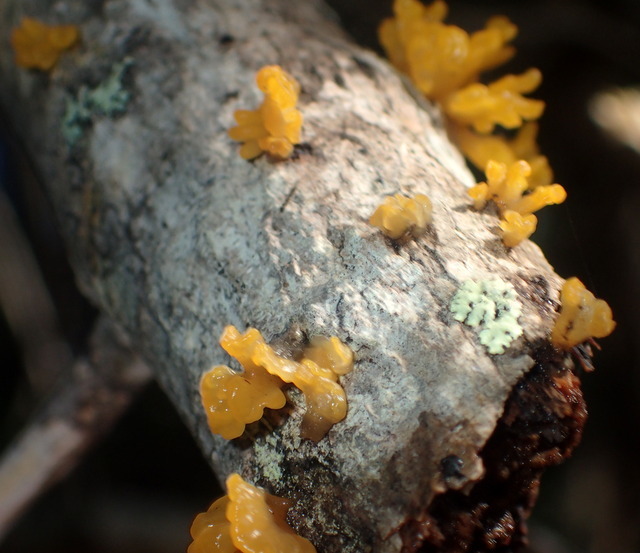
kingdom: Fungi
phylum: Basidiomycota
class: Dacrymycetes
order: Dacrymycetales
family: Dacrymycetaceae
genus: Dacrymyces
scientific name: Dacrymyces spathularius
